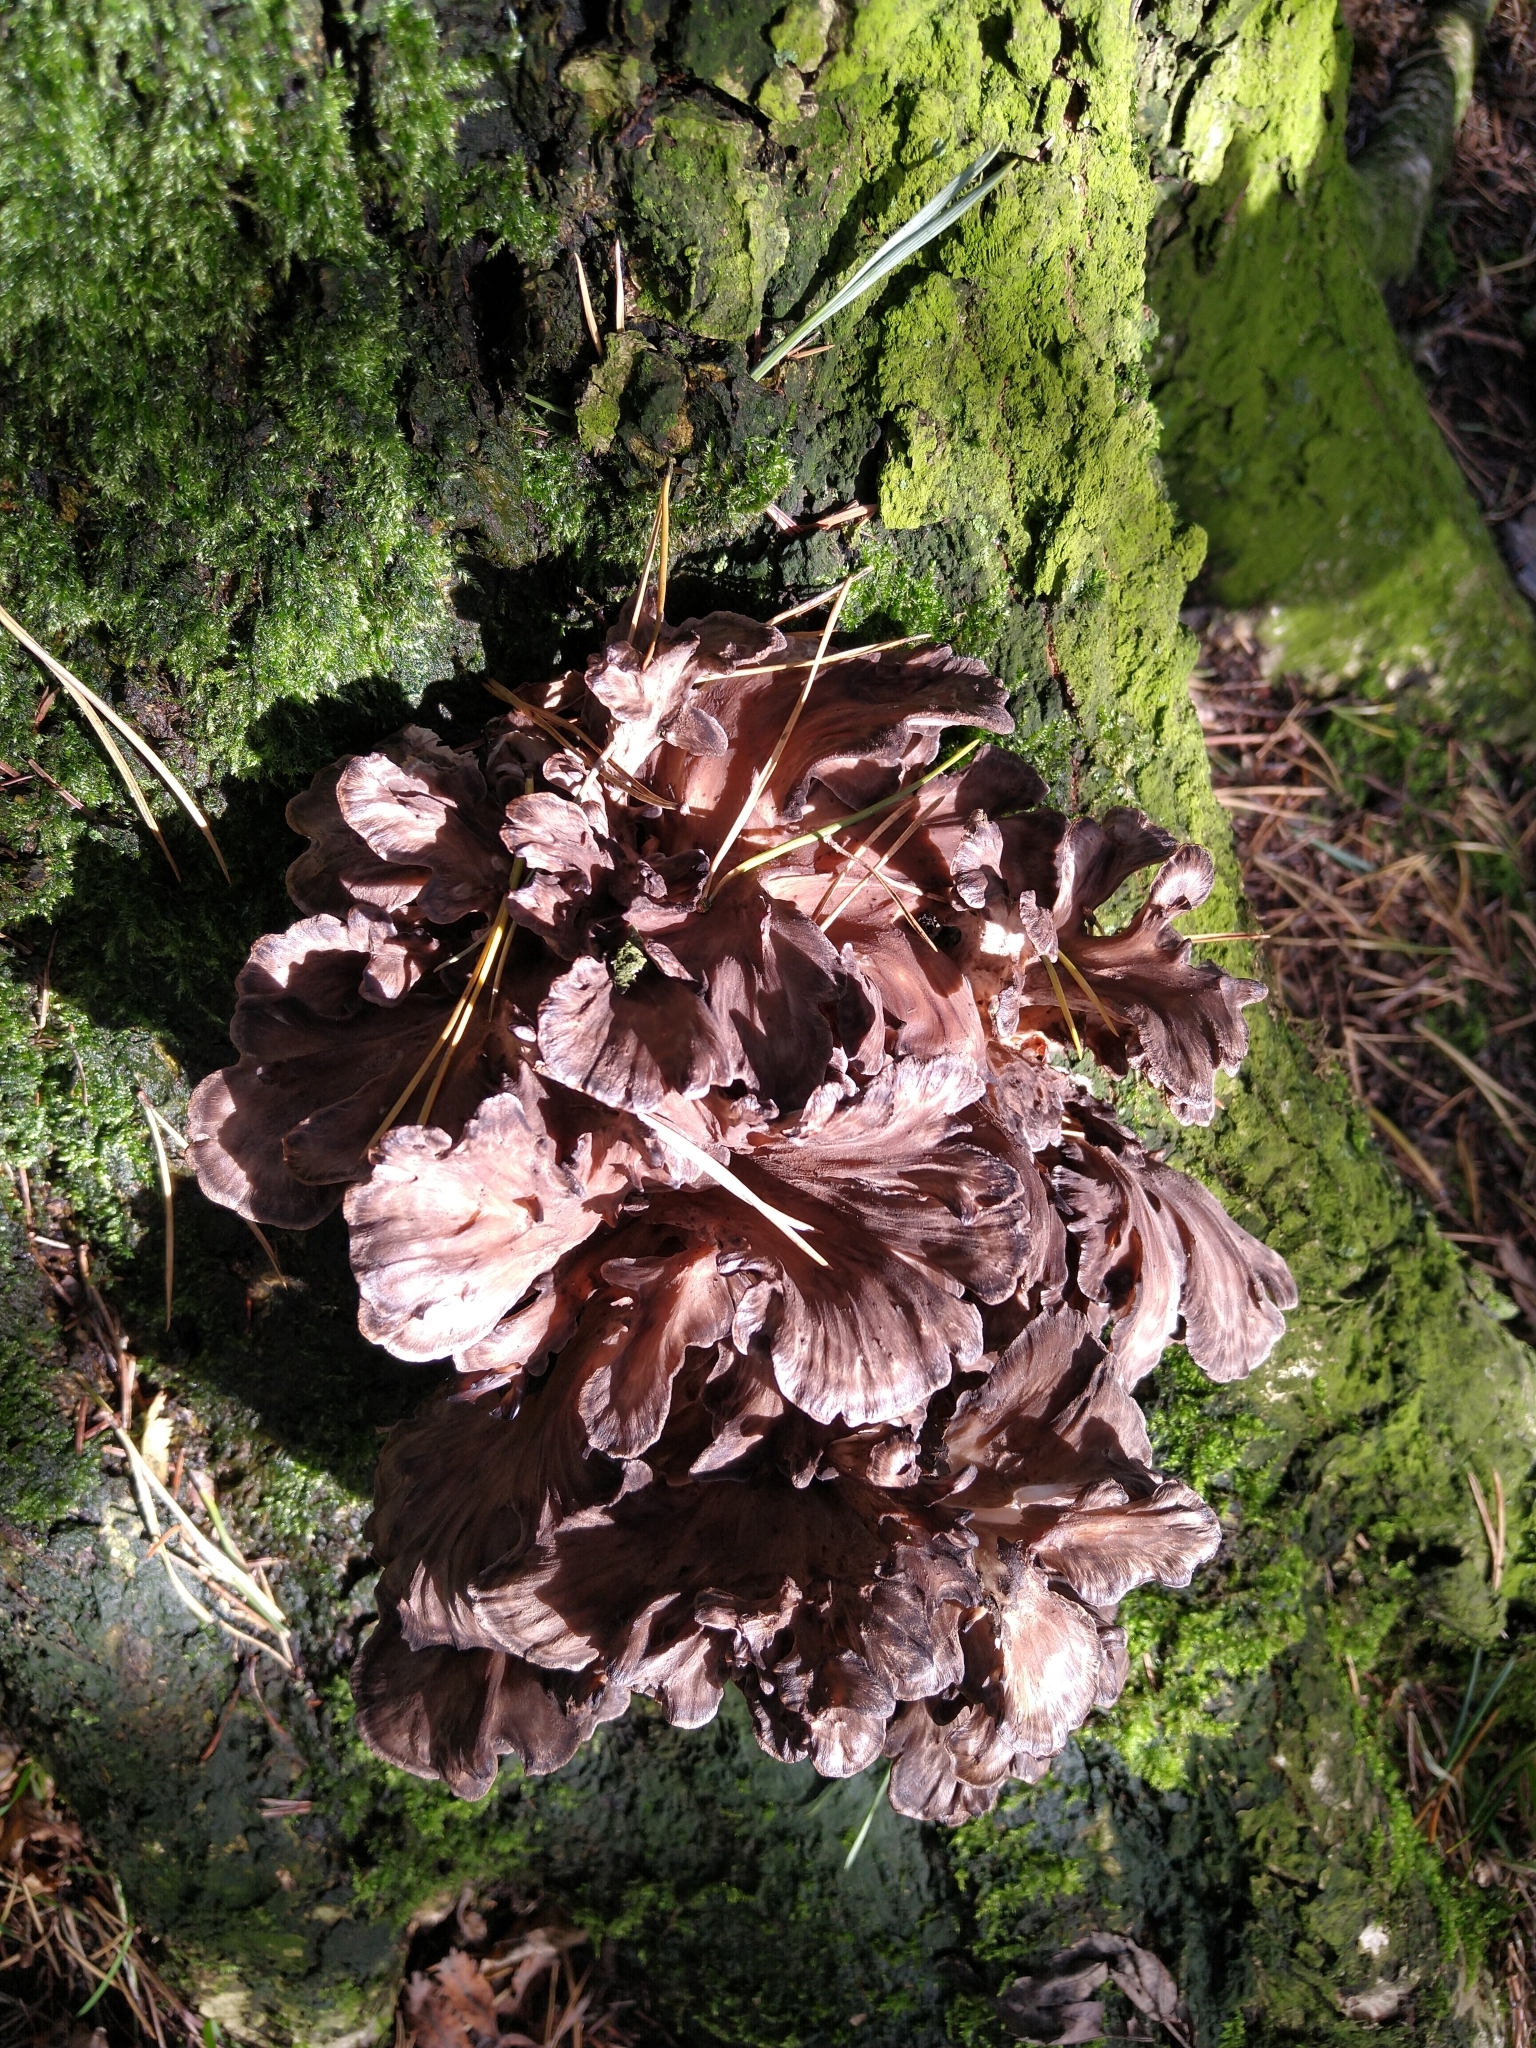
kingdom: Fungi
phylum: Basidiomycota
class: Agaricomycetes
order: Polyporales
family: Grifolaceae
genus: Grifola
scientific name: Grifola frondosa
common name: Hen of the woods
